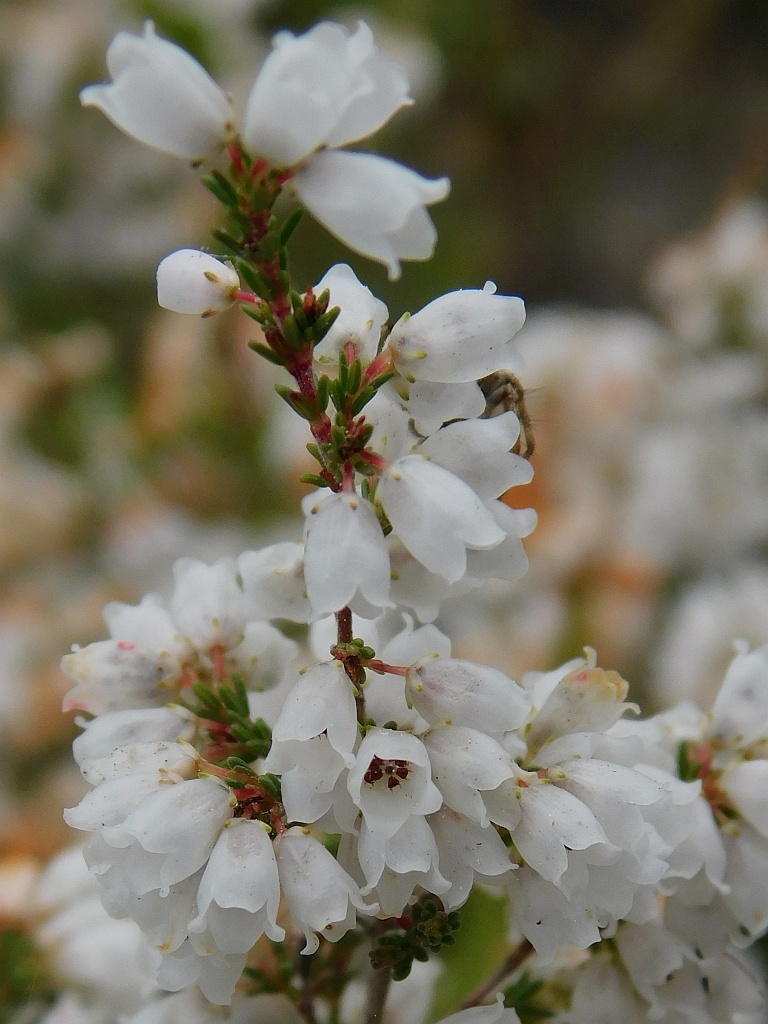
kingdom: Plantae
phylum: Tracheophyta
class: Magnoliopsida
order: Ericales
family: Ericaceae
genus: Erica
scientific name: Erica quadrangularis
